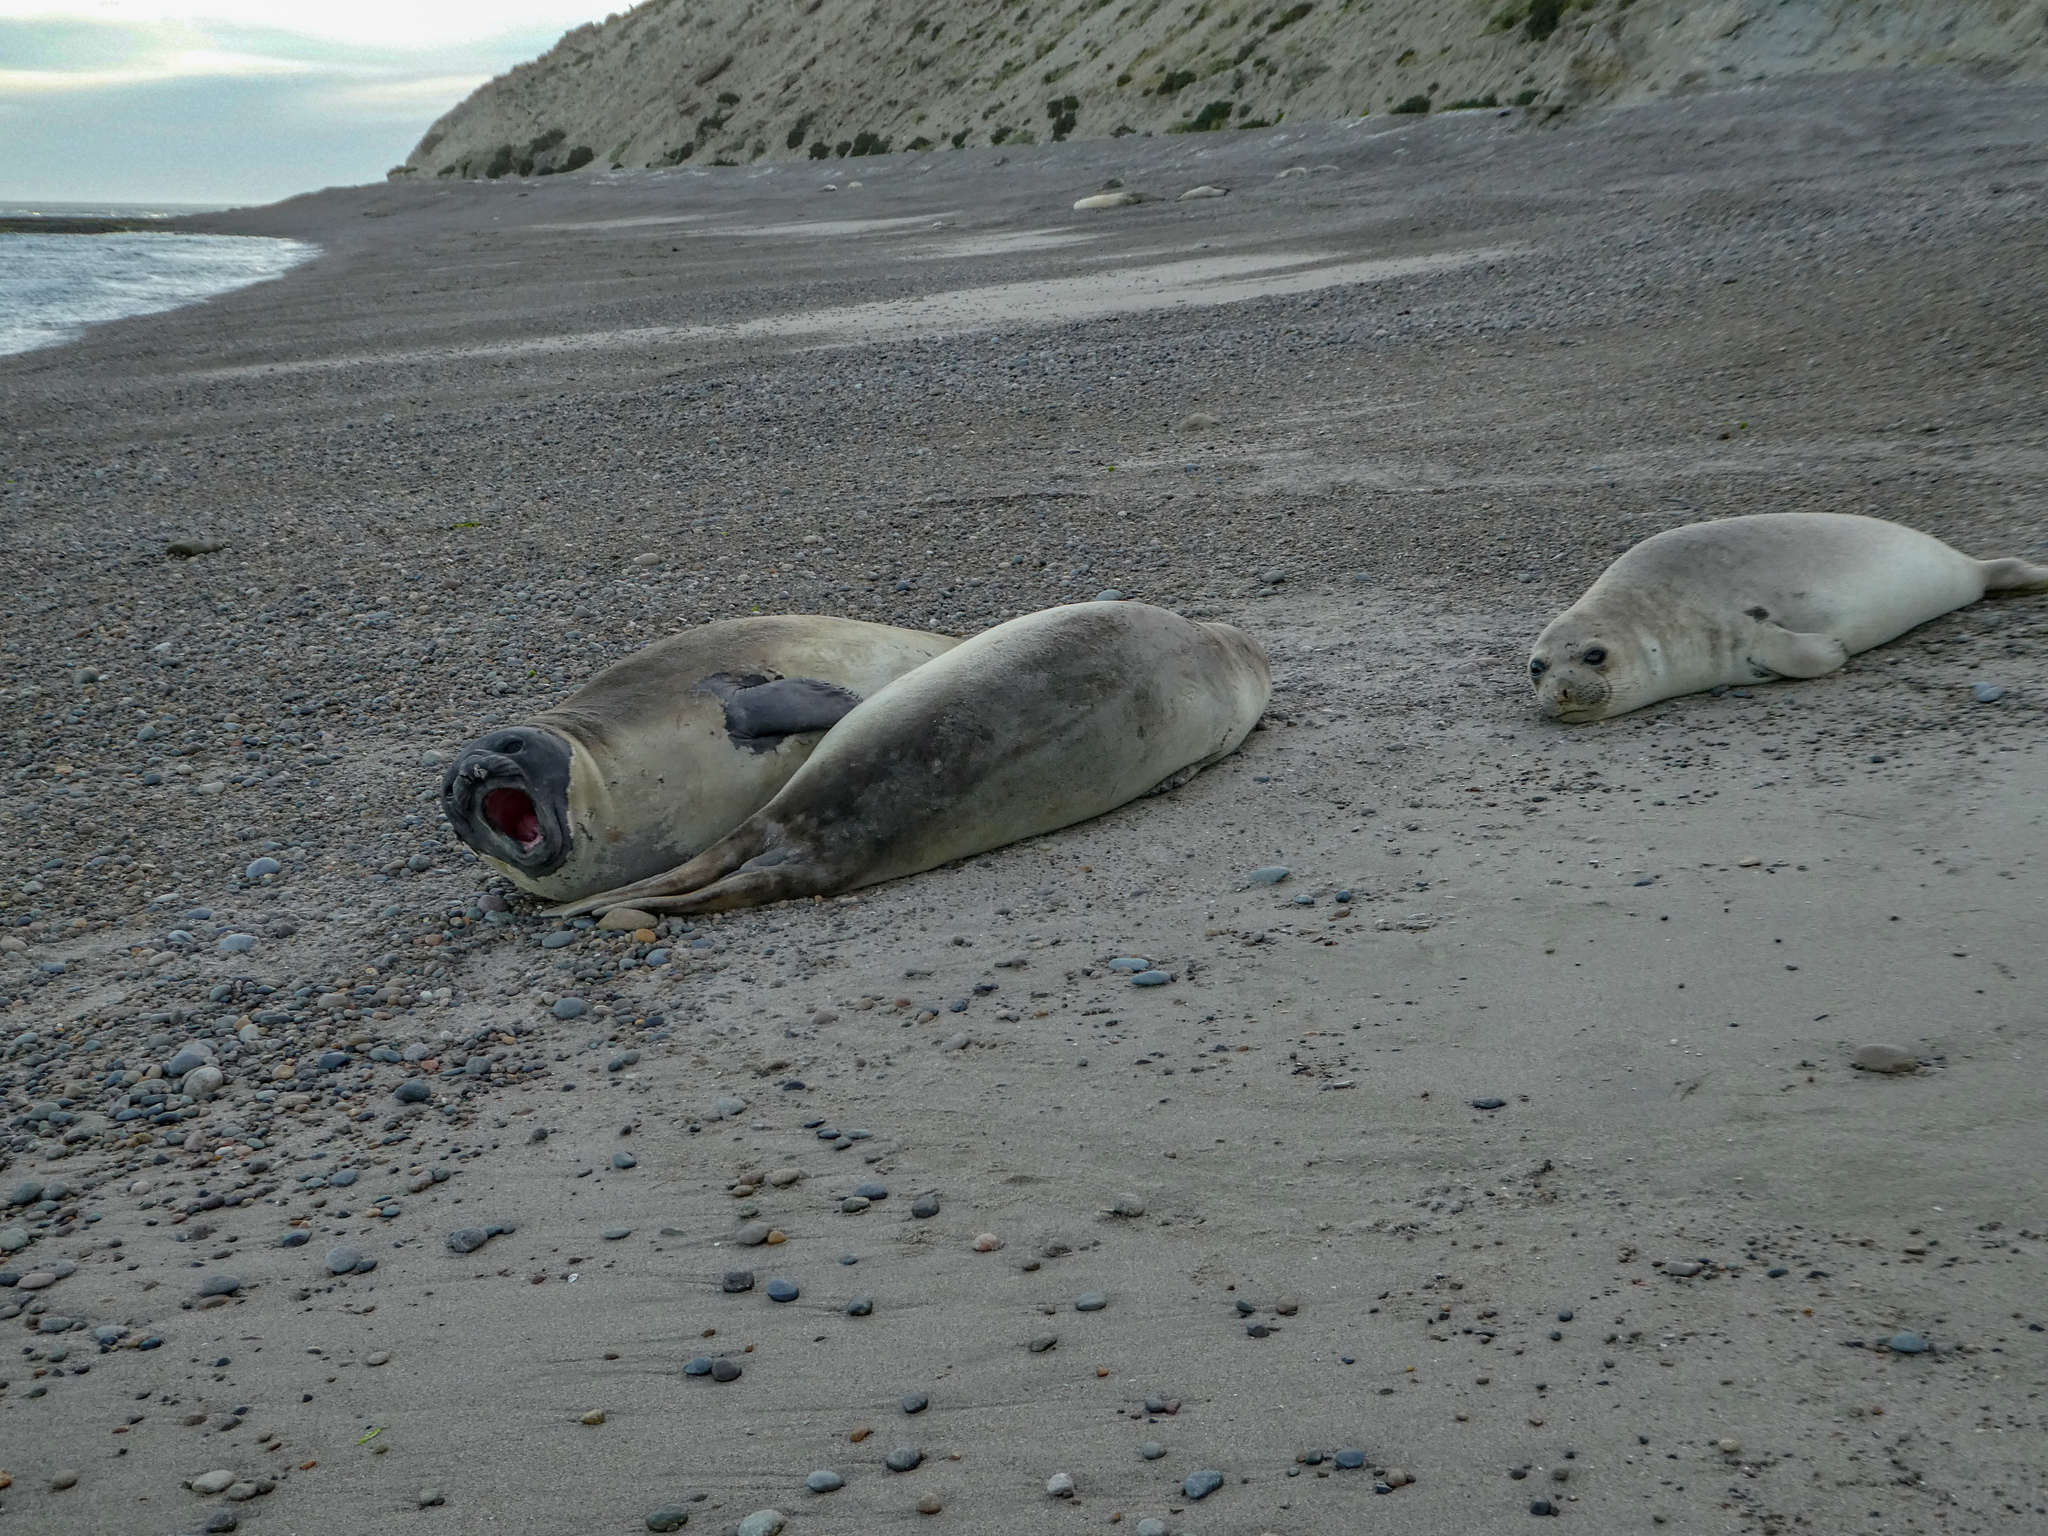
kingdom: Animalia
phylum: Chordata
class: Mammalia
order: Carnivora
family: Phocidae
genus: Mirounga
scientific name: Mirounga leonina
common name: Southern elephant seal
